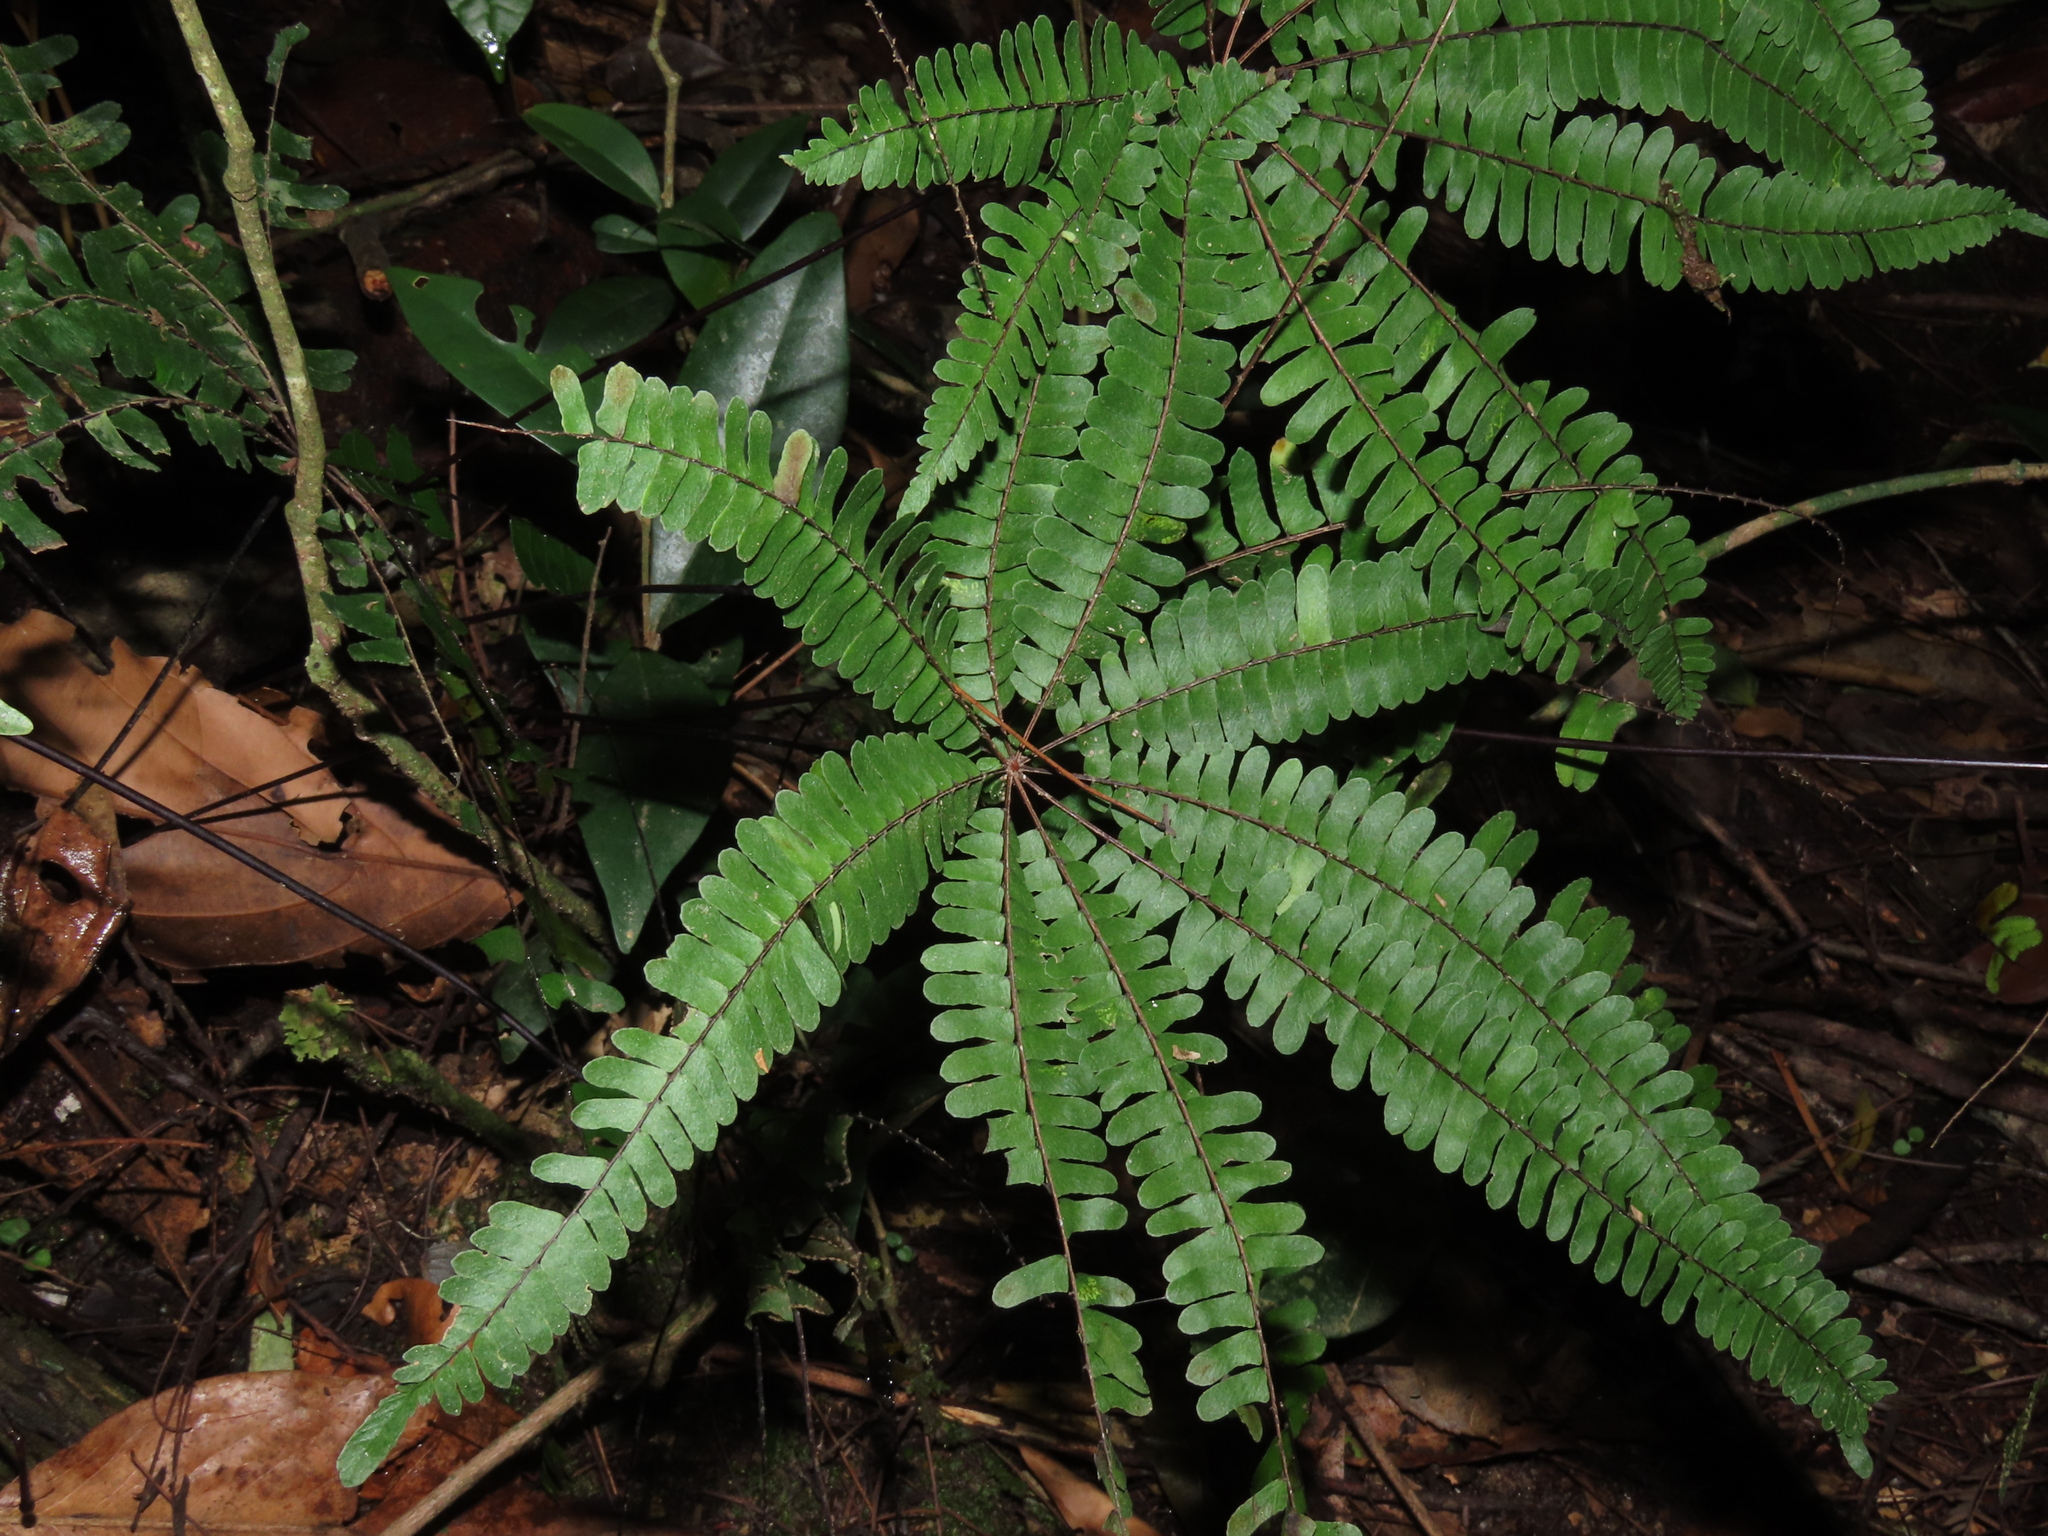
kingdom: Plantae
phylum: Tracheophyta
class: Polypodiopsida
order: Polypodiales
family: Pteridaceae
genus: Adiantopsis
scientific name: Adiantopsis radiata
